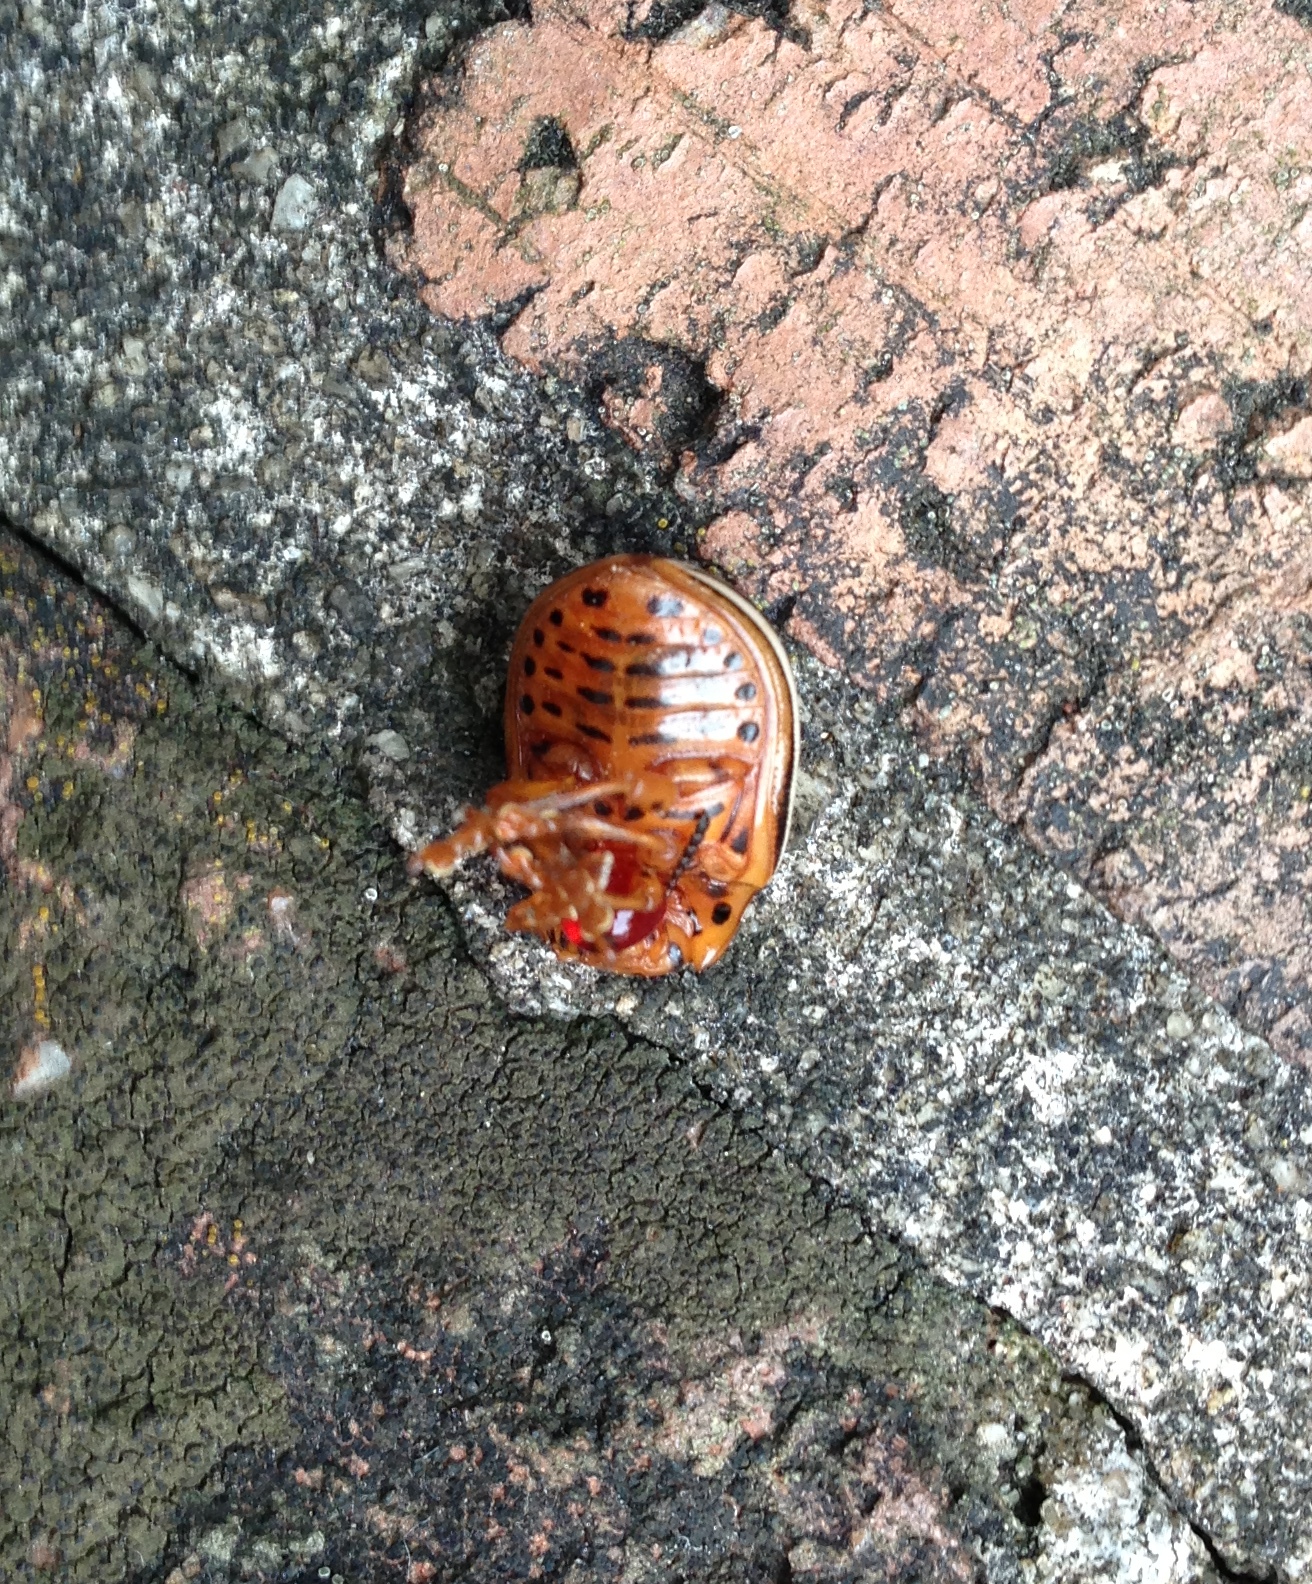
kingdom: Animalia
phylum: Arthropoda
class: Insecta
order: Coleoptera
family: Chrysomelidae
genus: Leptinotarsa
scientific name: Leptinotarsa juncta
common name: False potato beetle
